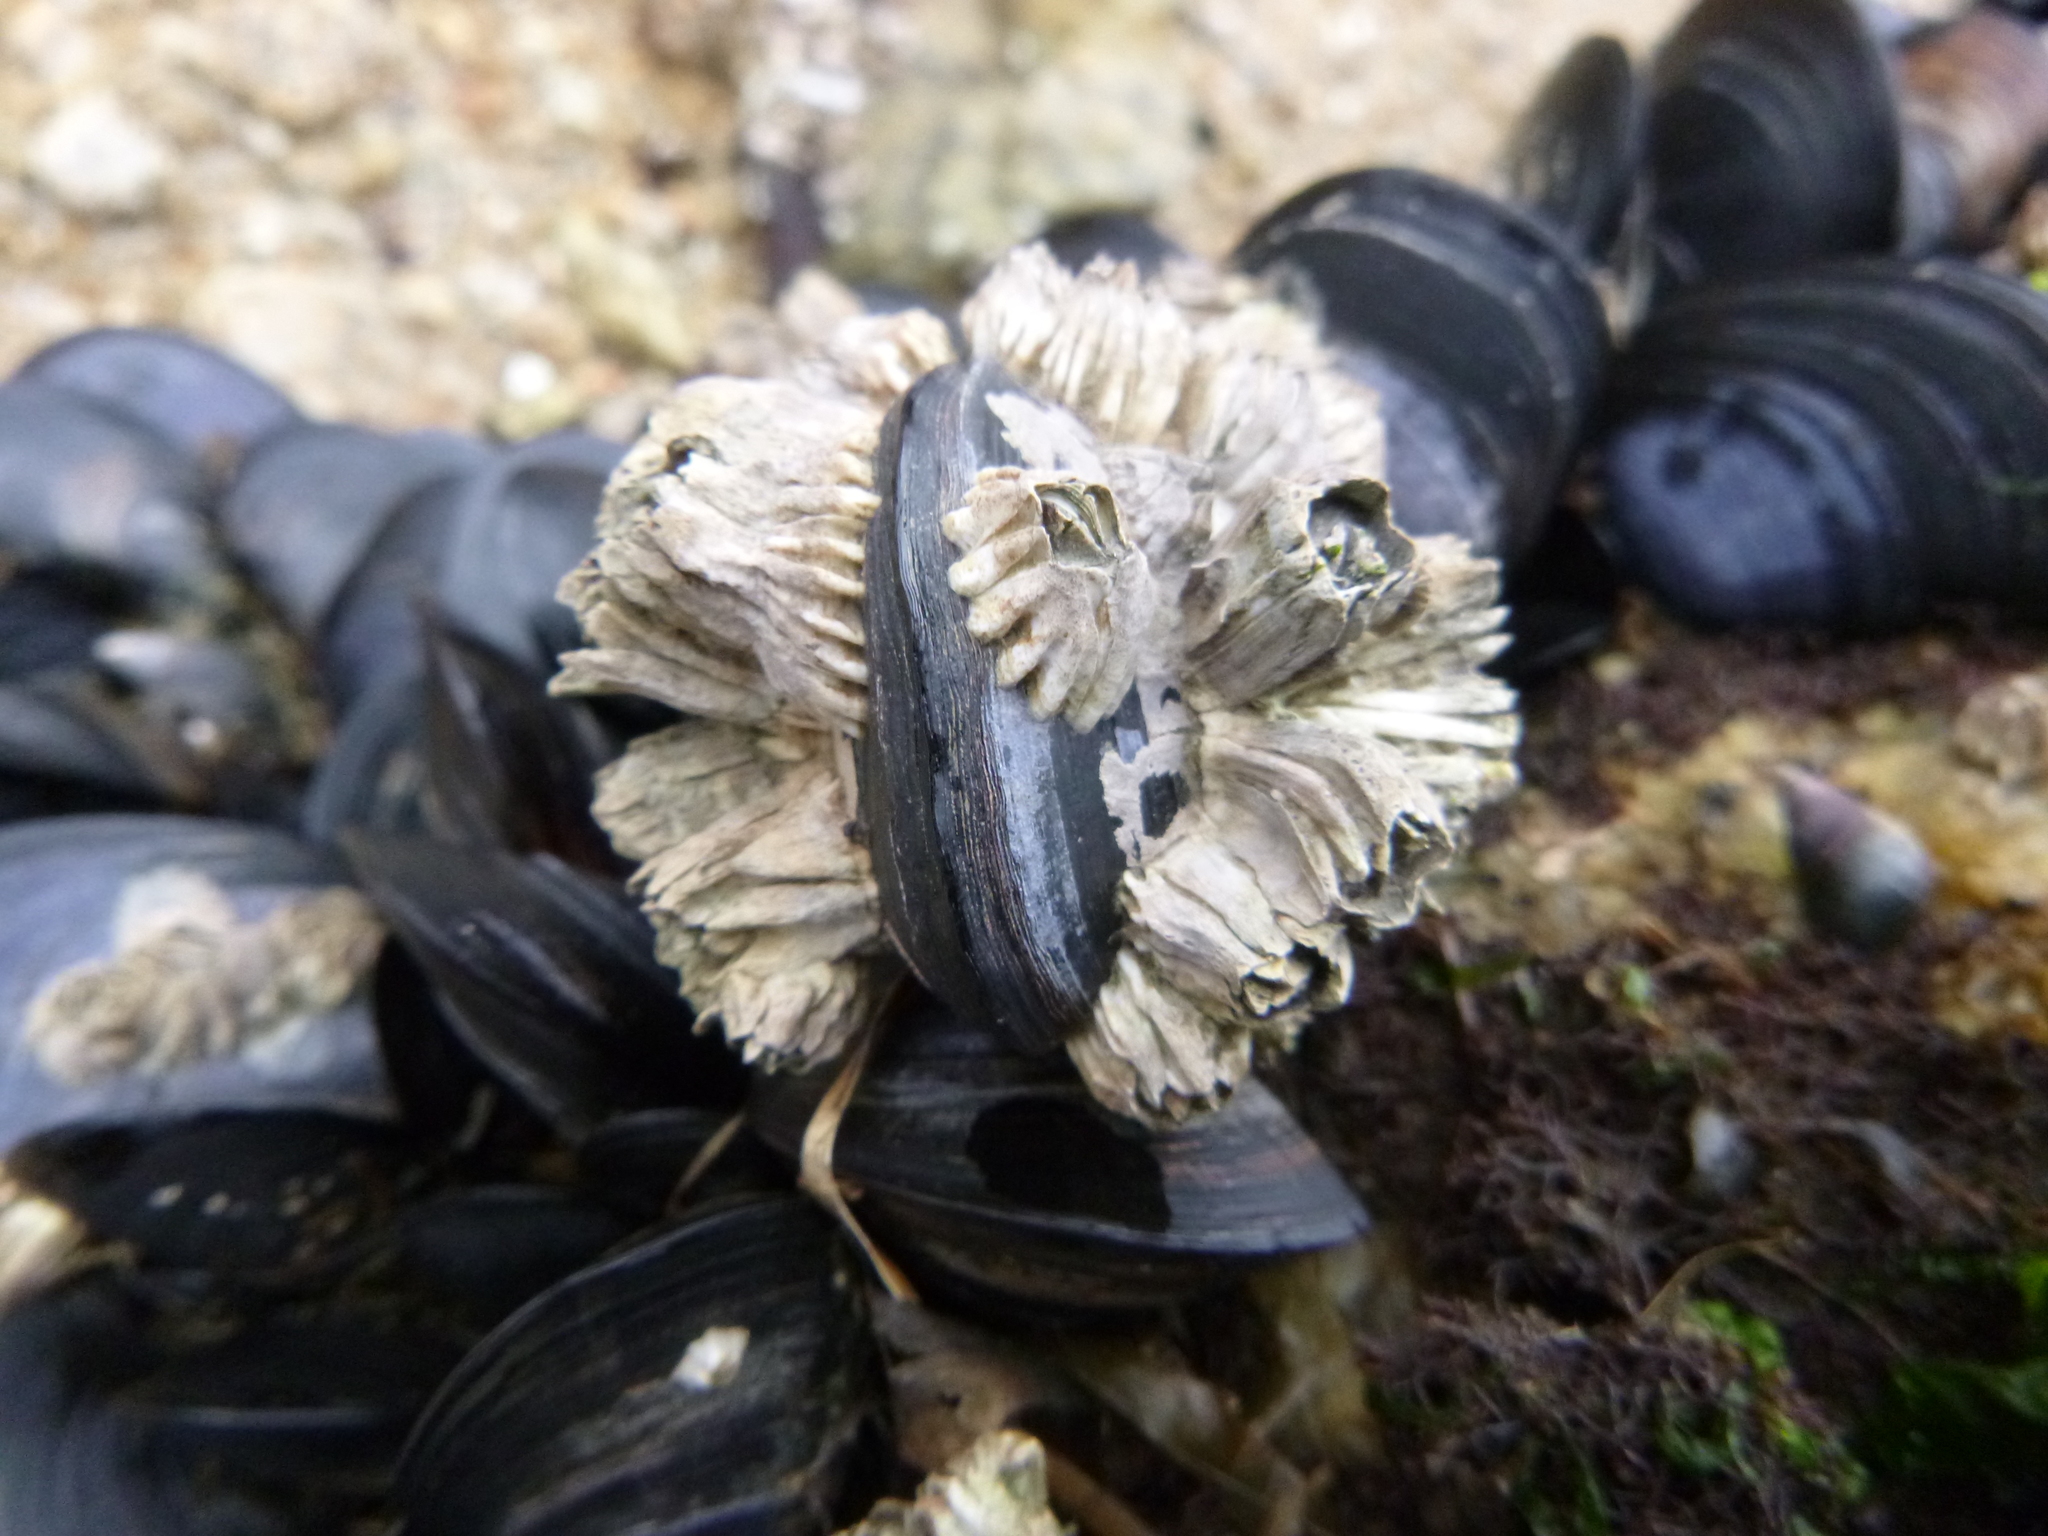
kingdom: Animalia
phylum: Arthropoda
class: Maxillopoda
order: Sessilia
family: Balanidae
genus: Balanus
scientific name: Balanus glandula
